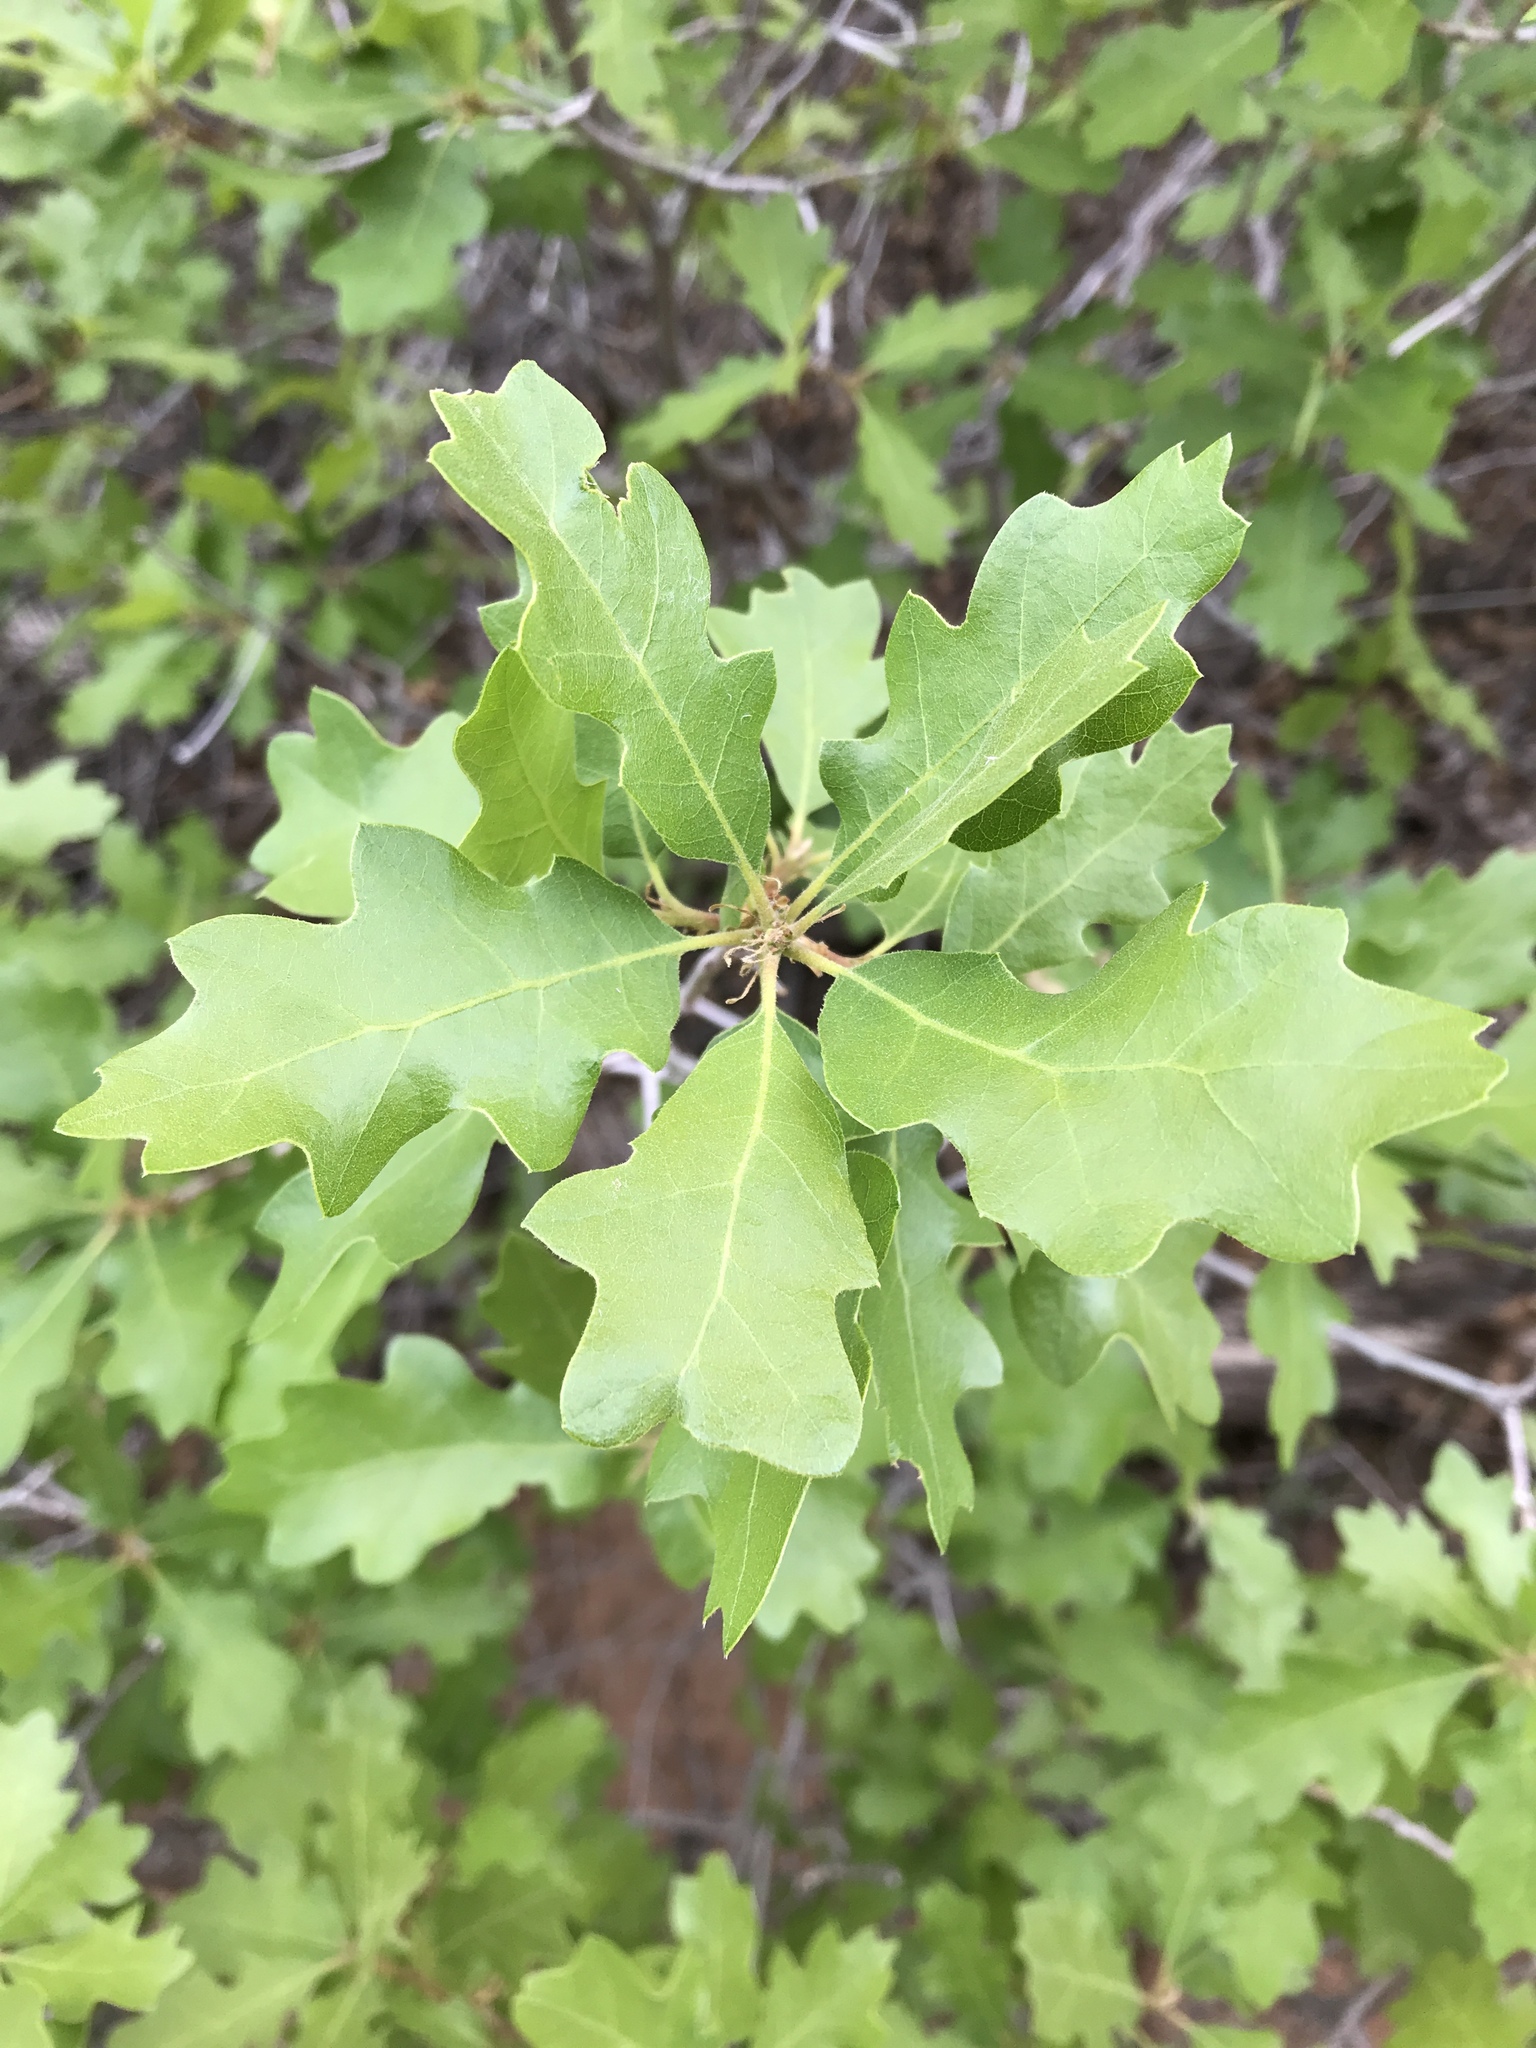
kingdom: Plantae
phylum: Tracheophyta
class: Magnoliopsida
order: Fagales
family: Fagaceae
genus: Quercus
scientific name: Quercus gambelii
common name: Gambel oak
